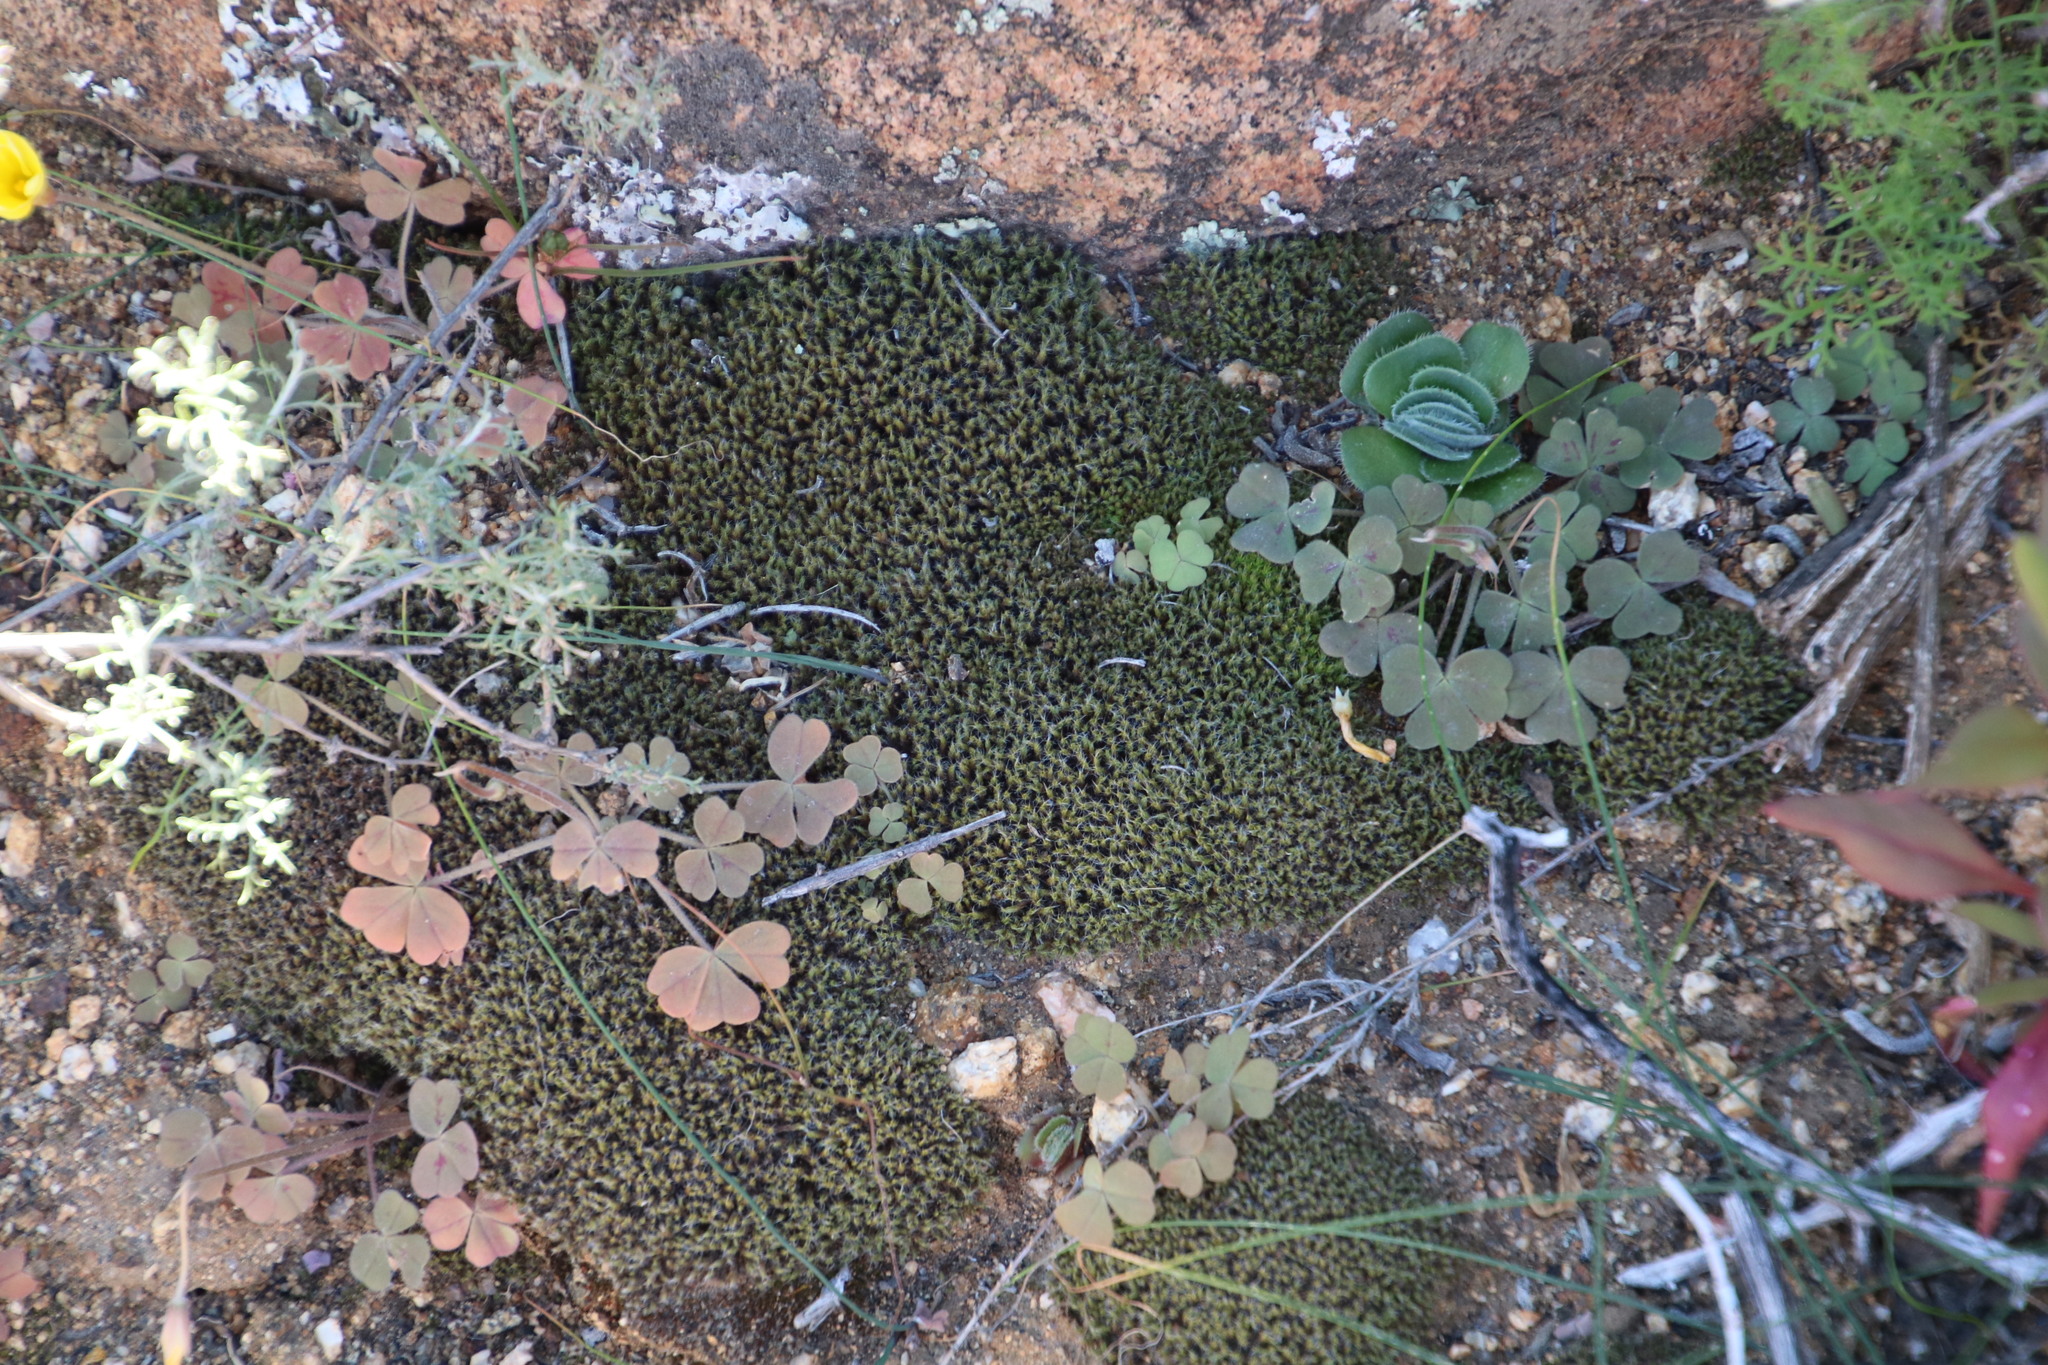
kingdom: Plantae
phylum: Bryophyta
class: Bryopsida
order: Pottiales
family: Pottiaceae
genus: Pseudocrossidium
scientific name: Pseudocrossidium crinitum
